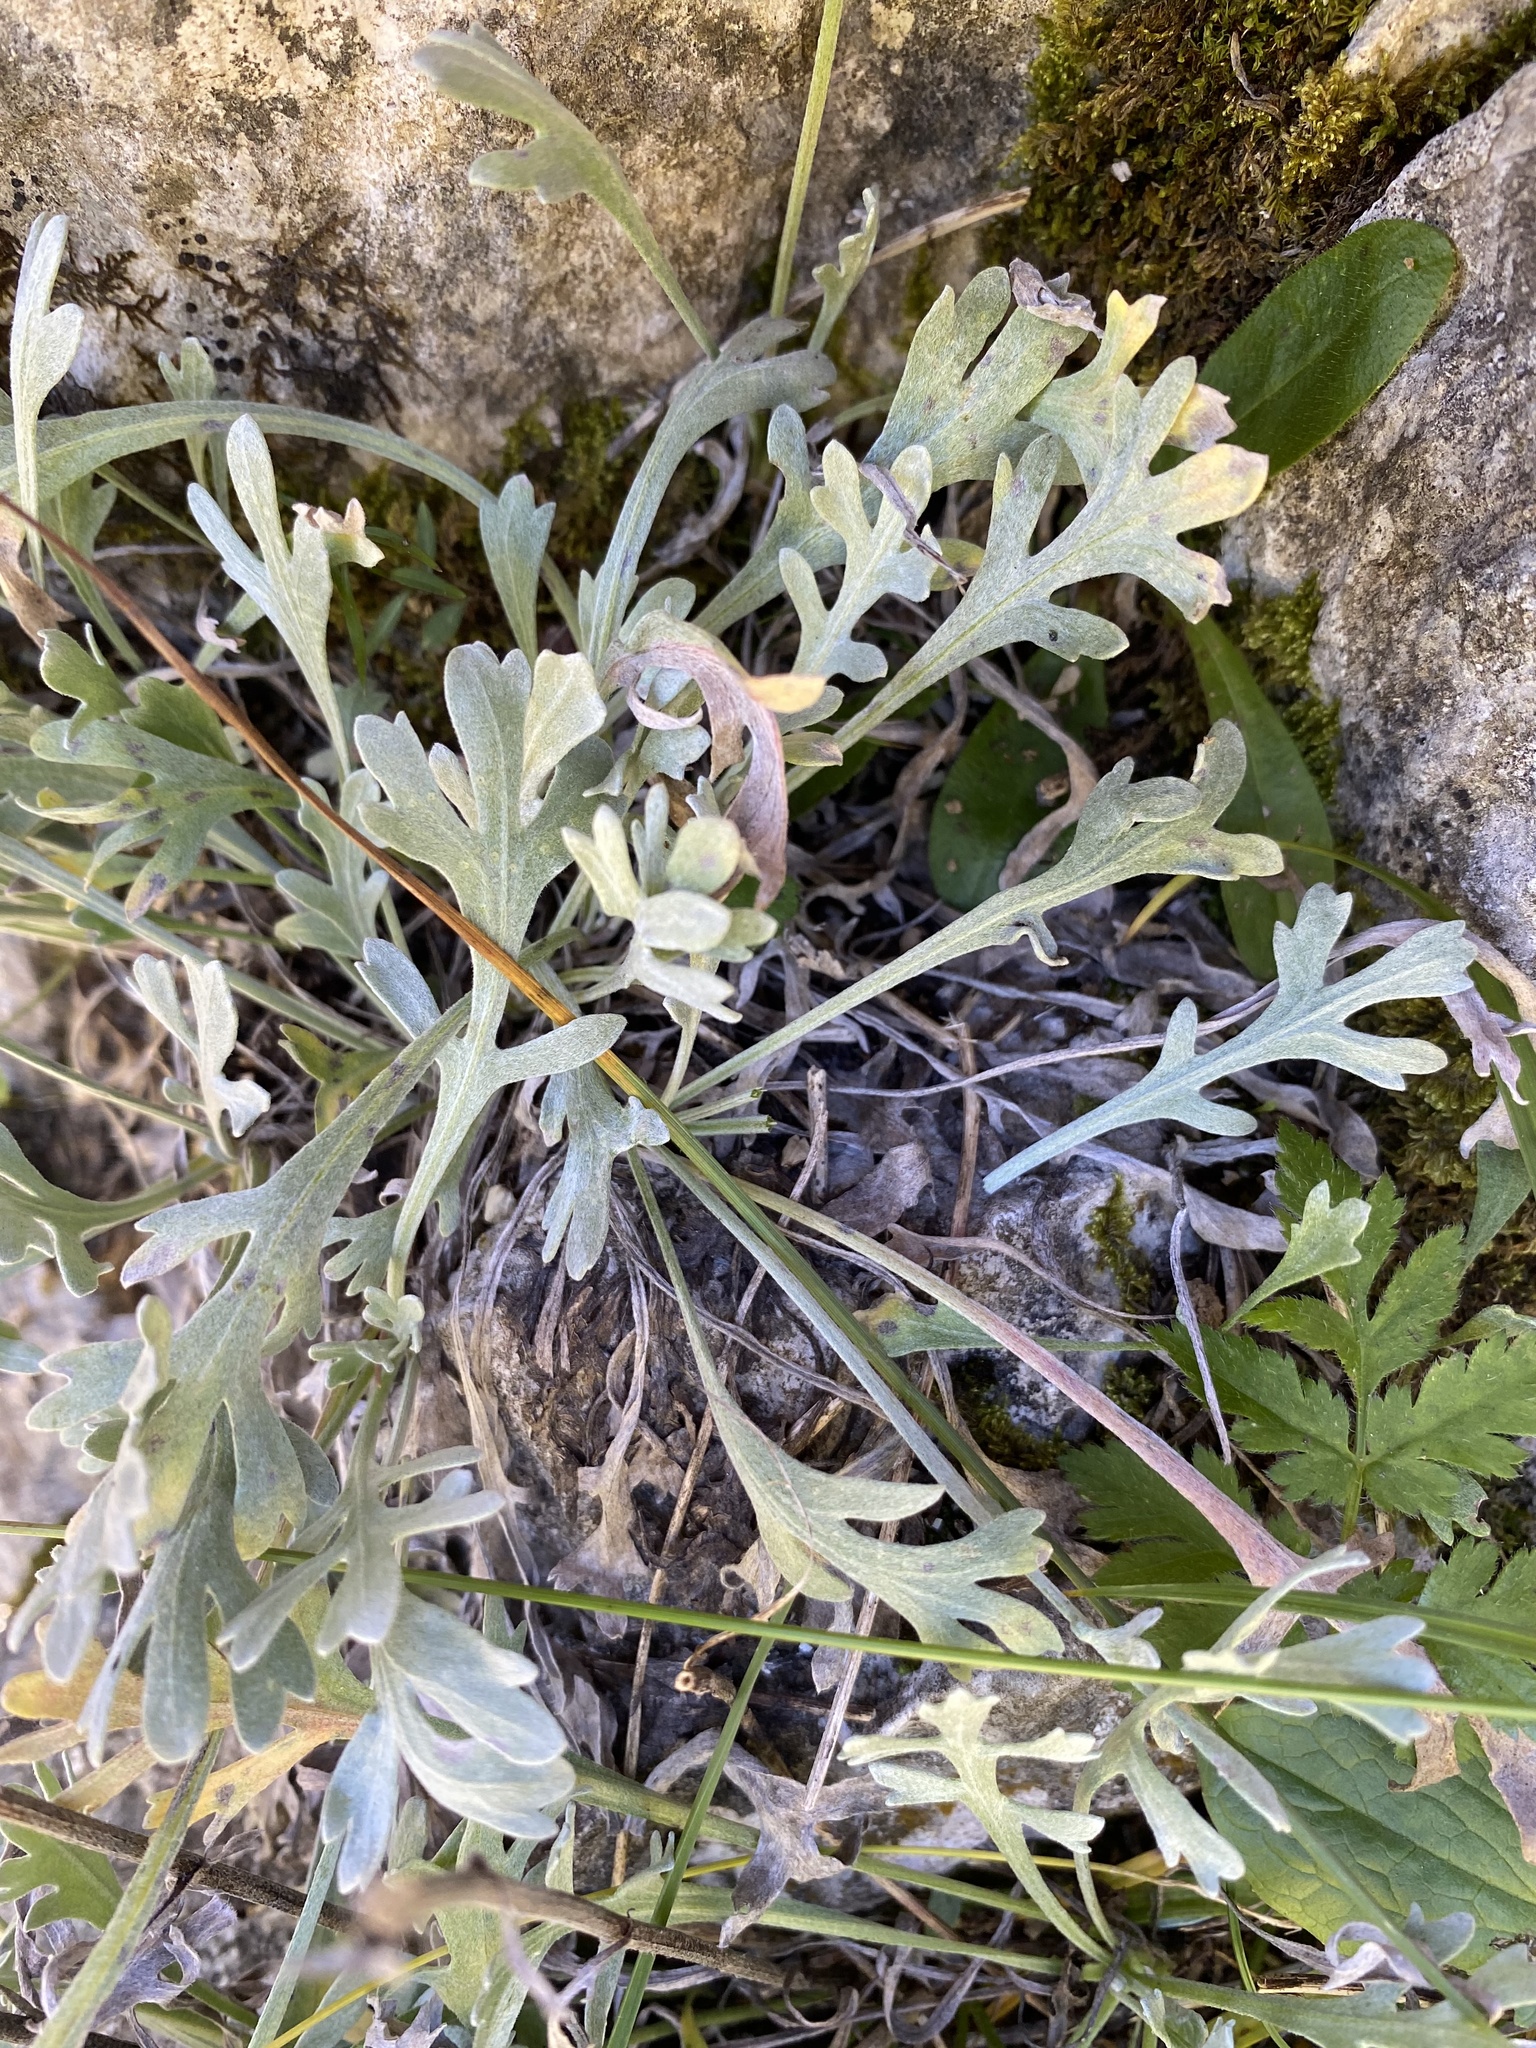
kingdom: Plantae
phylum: Tracheophyta
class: Magnoliopsida
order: Asterales
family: Asteraceae
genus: Achillea
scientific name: Achillea clavennae
